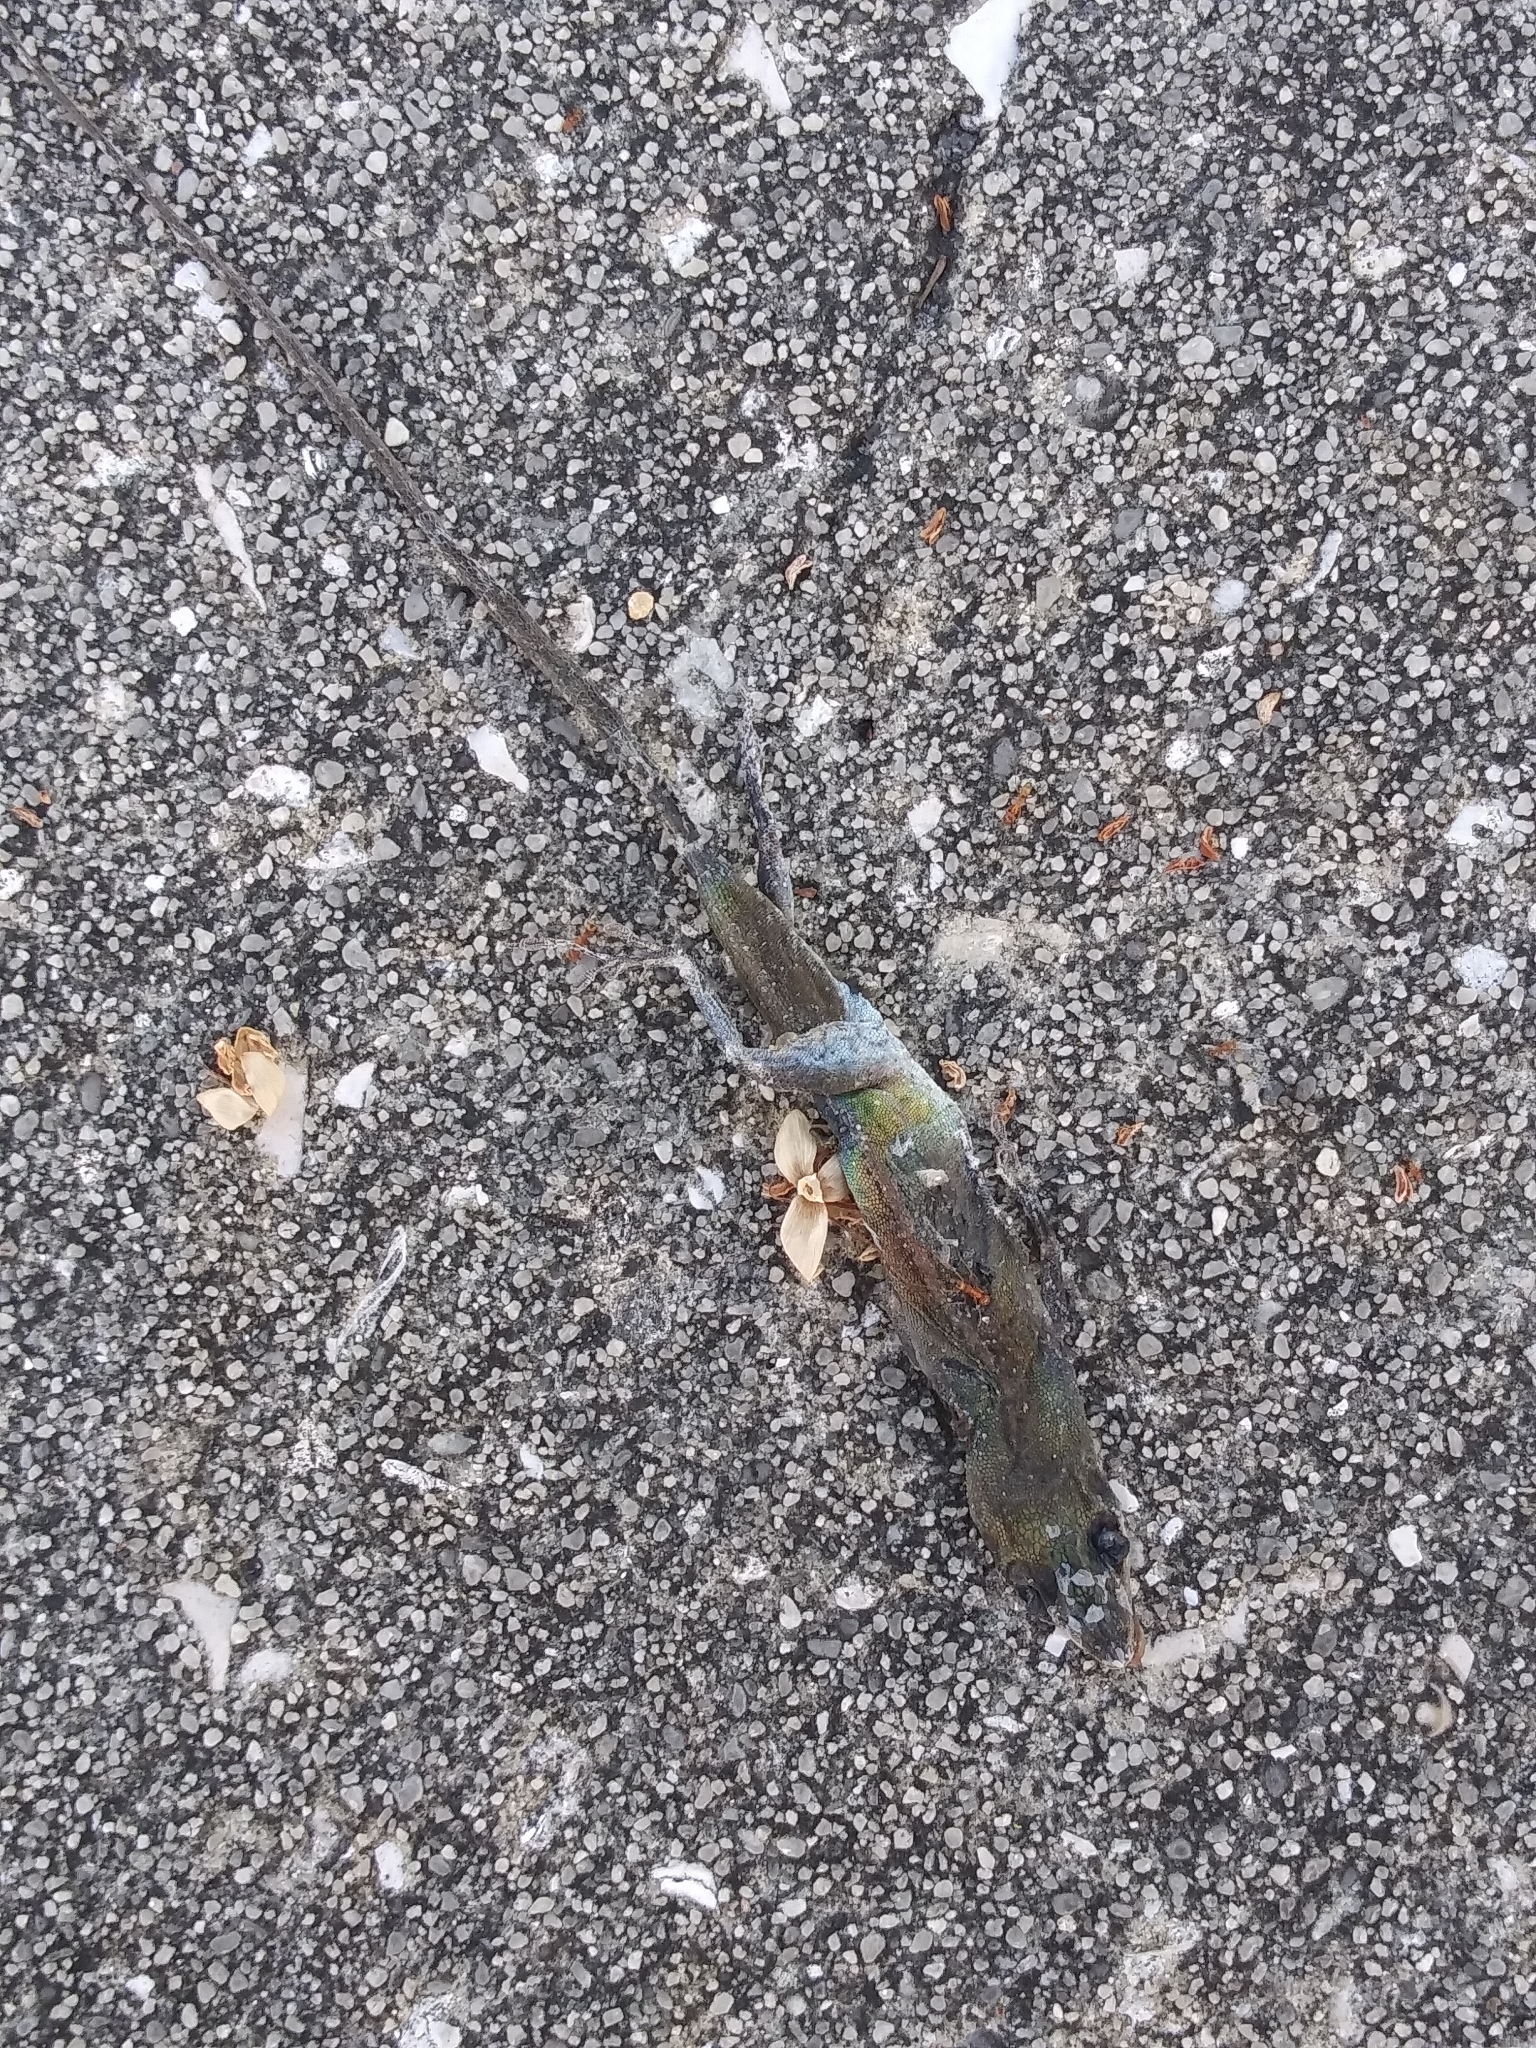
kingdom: Animalia
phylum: Chordata
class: Squamata
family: Dactyloidae
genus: Anolis
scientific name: Anolis carolinensis
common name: Green anole
